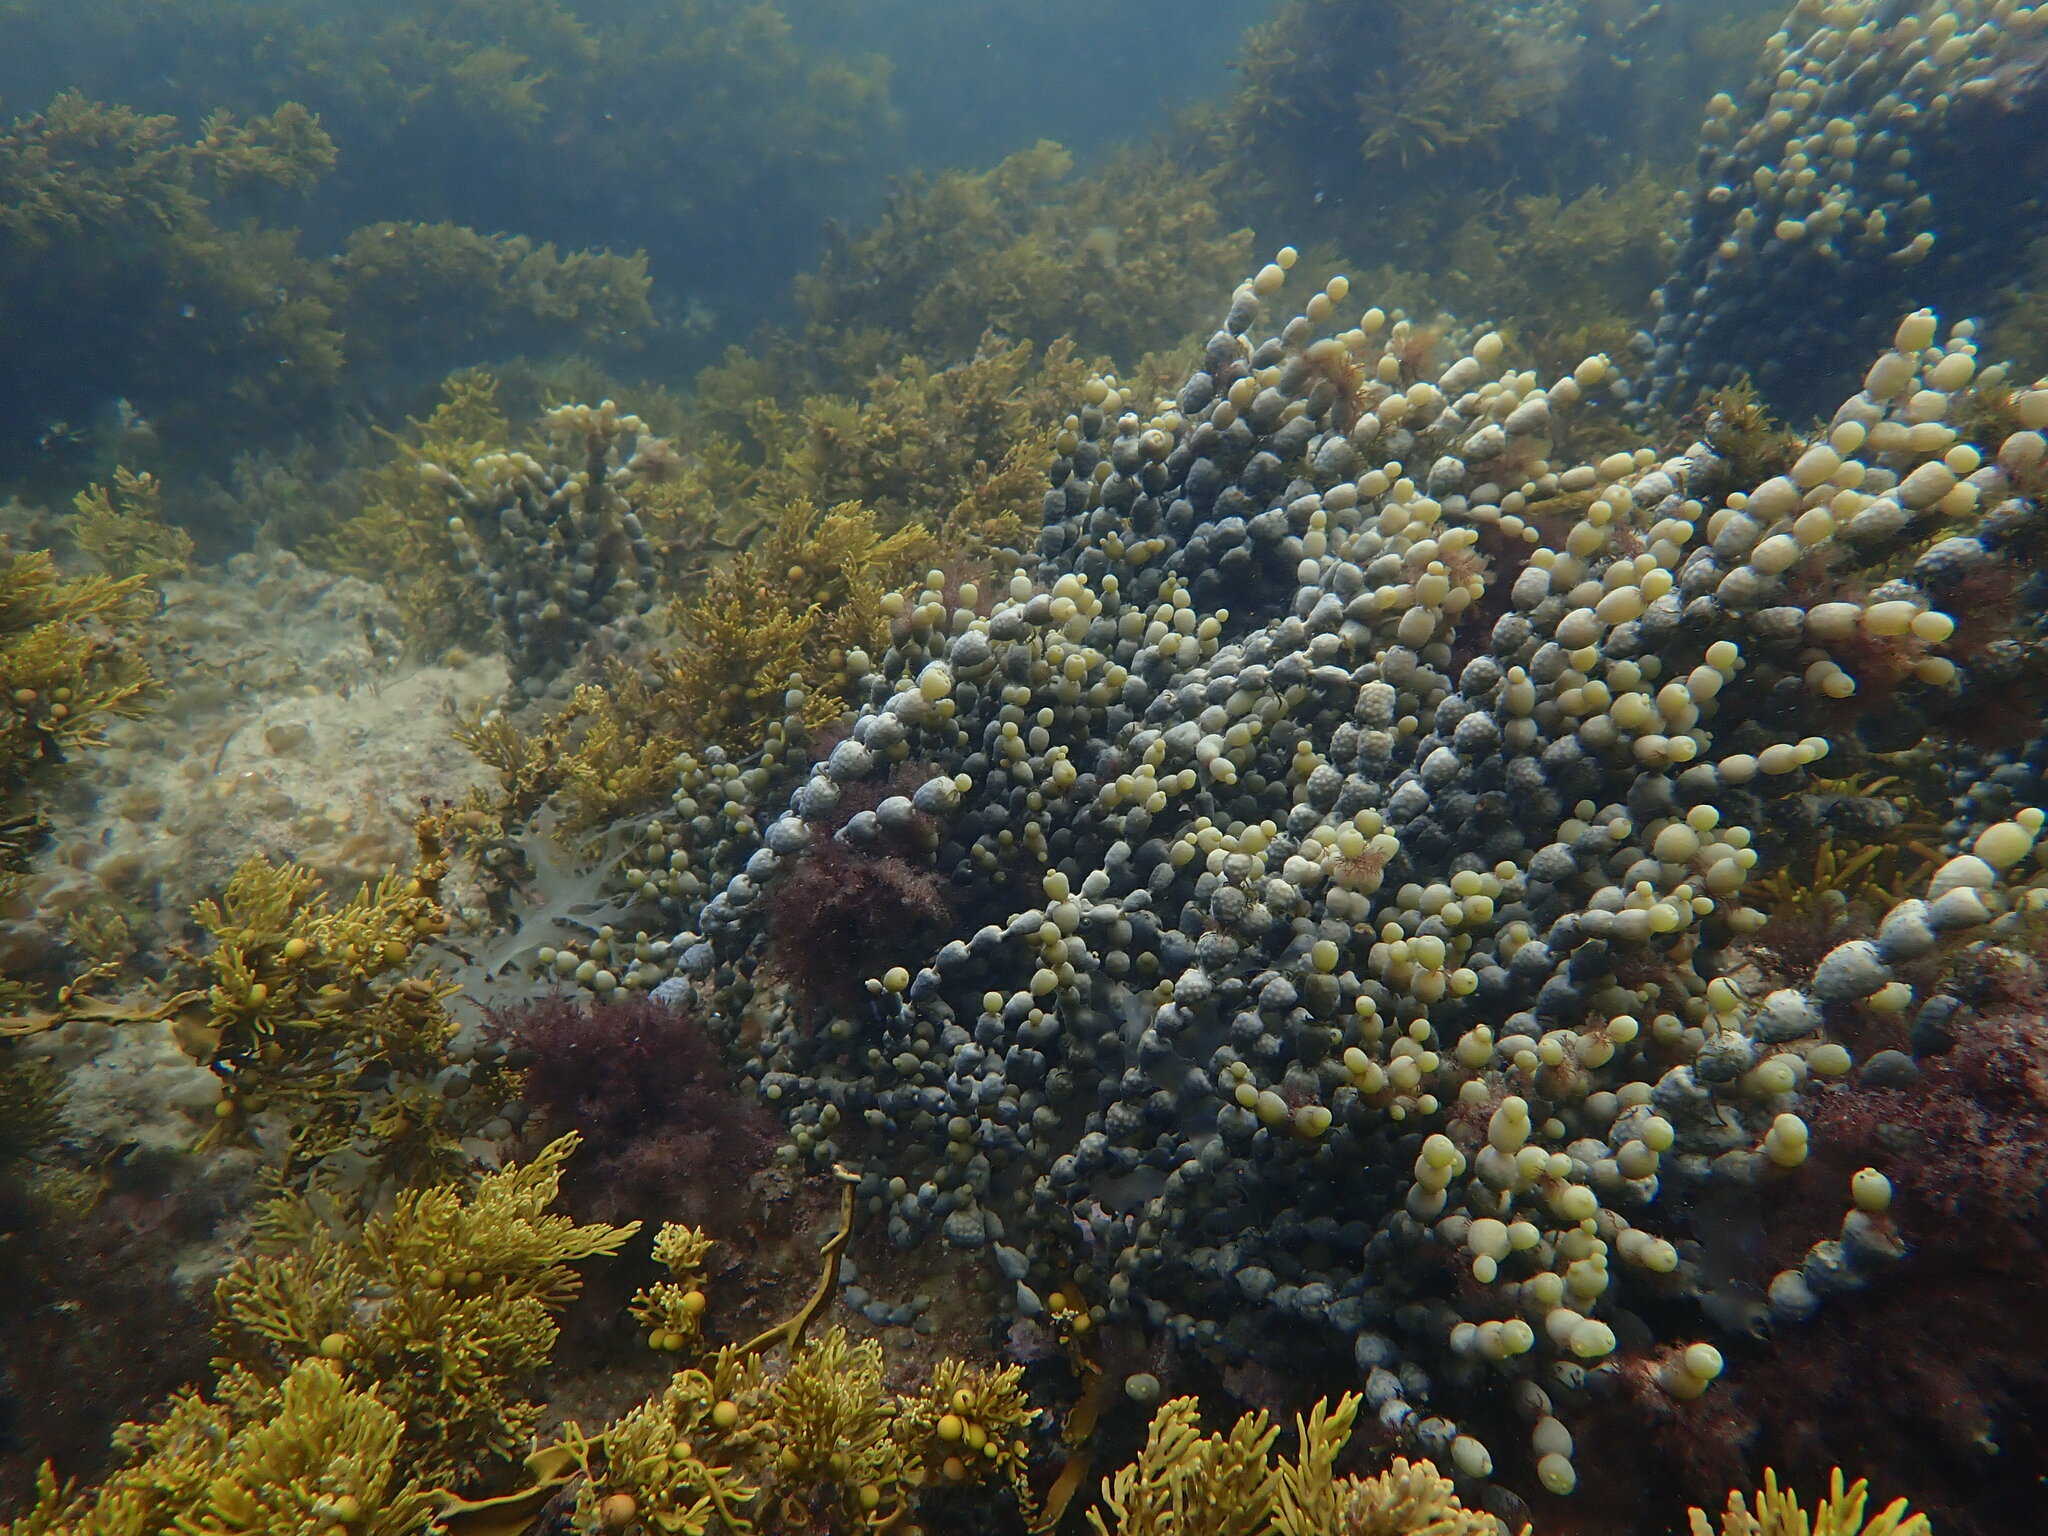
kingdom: Chromista
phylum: Ochrophyta
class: Phaeophyceae
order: Fucales
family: Hormosiraceae
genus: Hormosira
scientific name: Hormosira banksii
